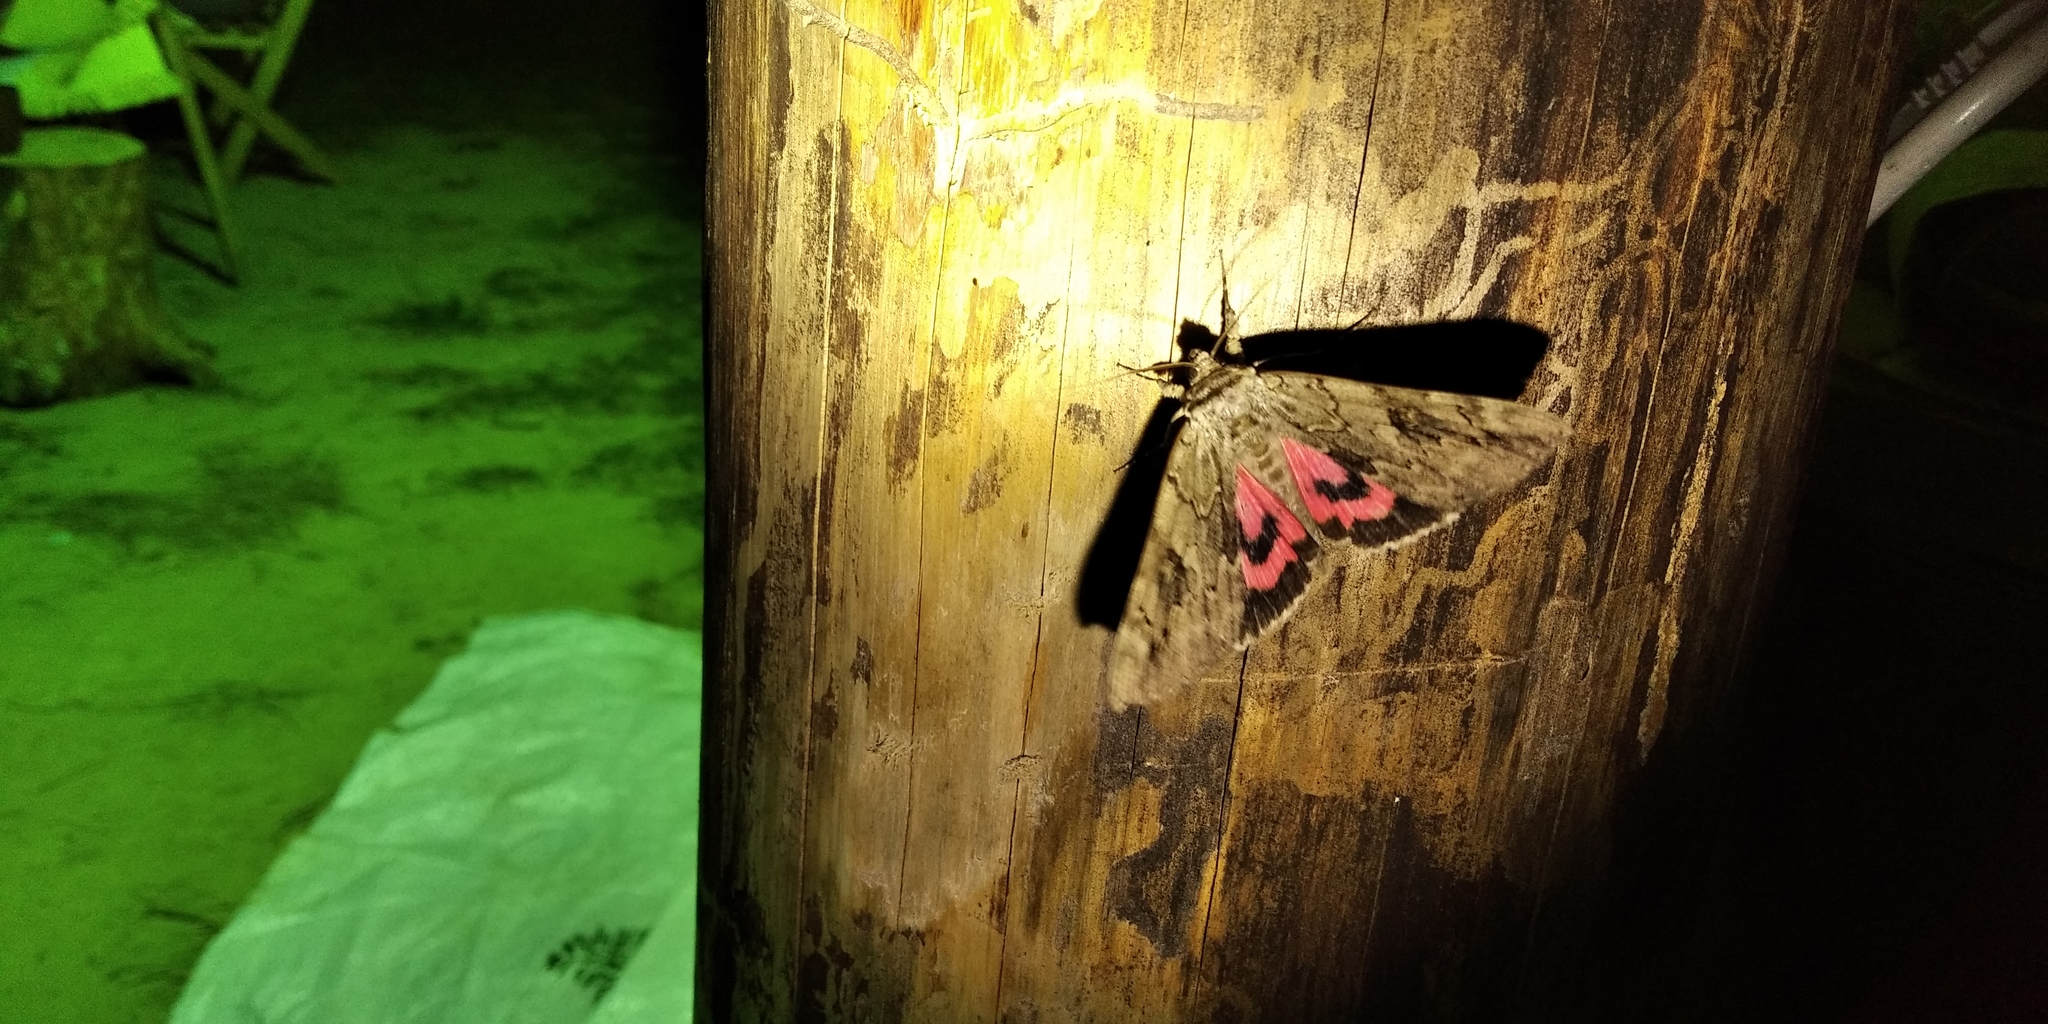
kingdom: Animalia
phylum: Arthropoda
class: Insecta
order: Lepidoptera
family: Erebidae
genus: Catocala
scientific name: Catocala electa
